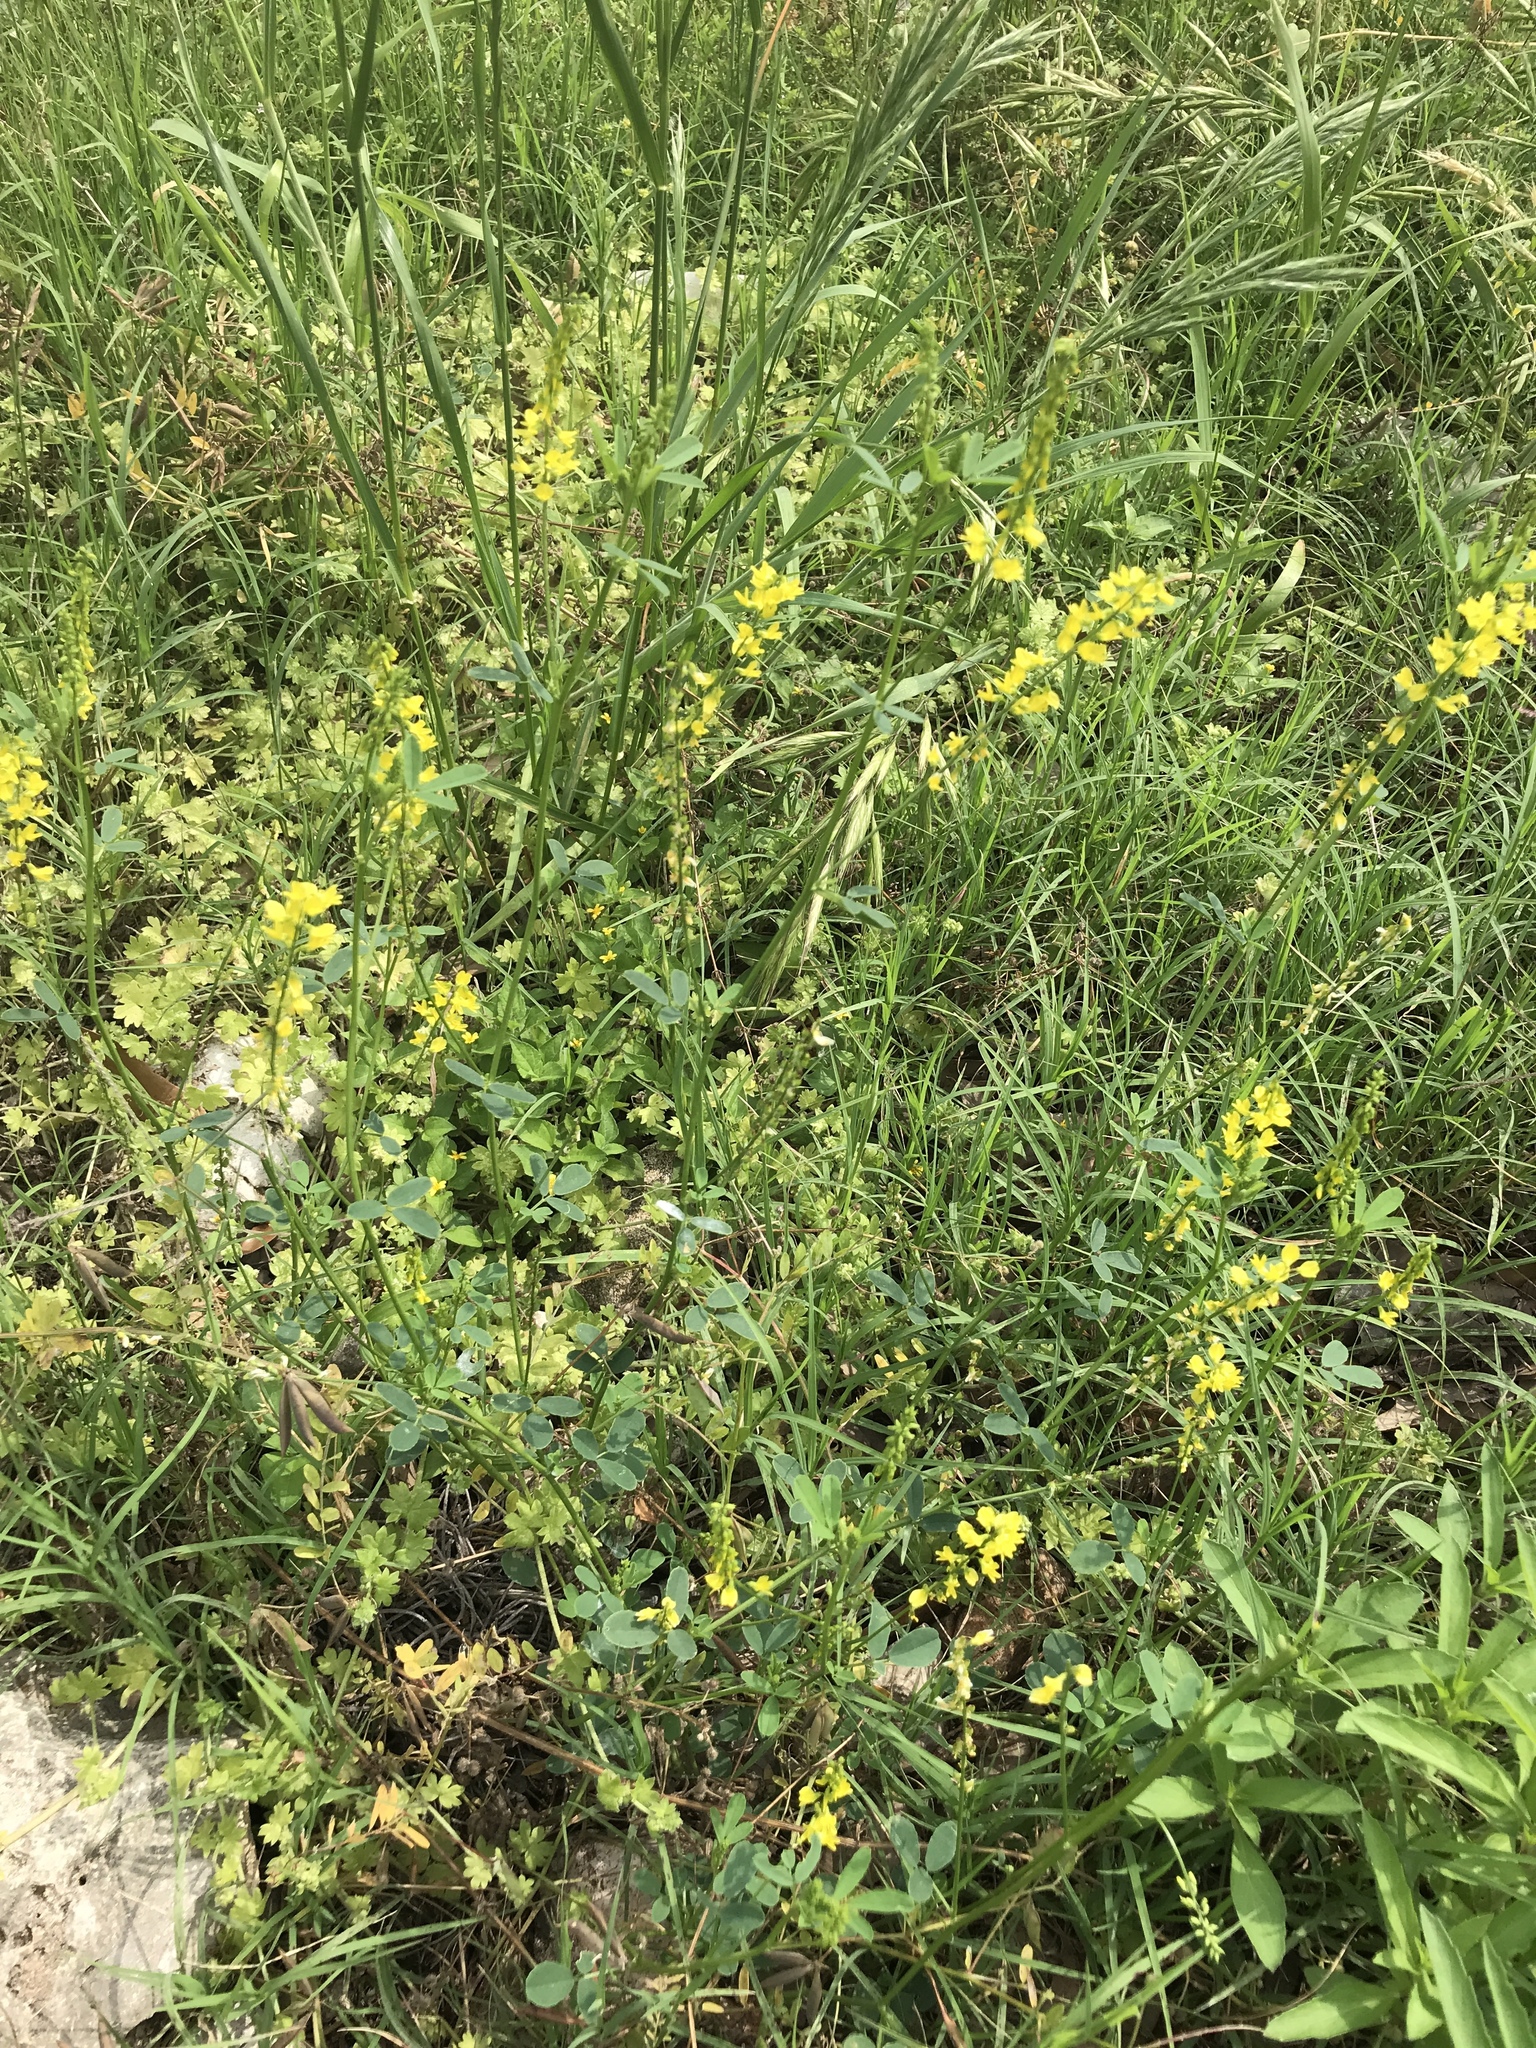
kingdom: Plantae
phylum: Tracheophyta
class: Magnoliopsida
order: Fabales
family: Fabaceae
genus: Melilotus
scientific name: Melilotus officinalis
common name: Sweetclover
